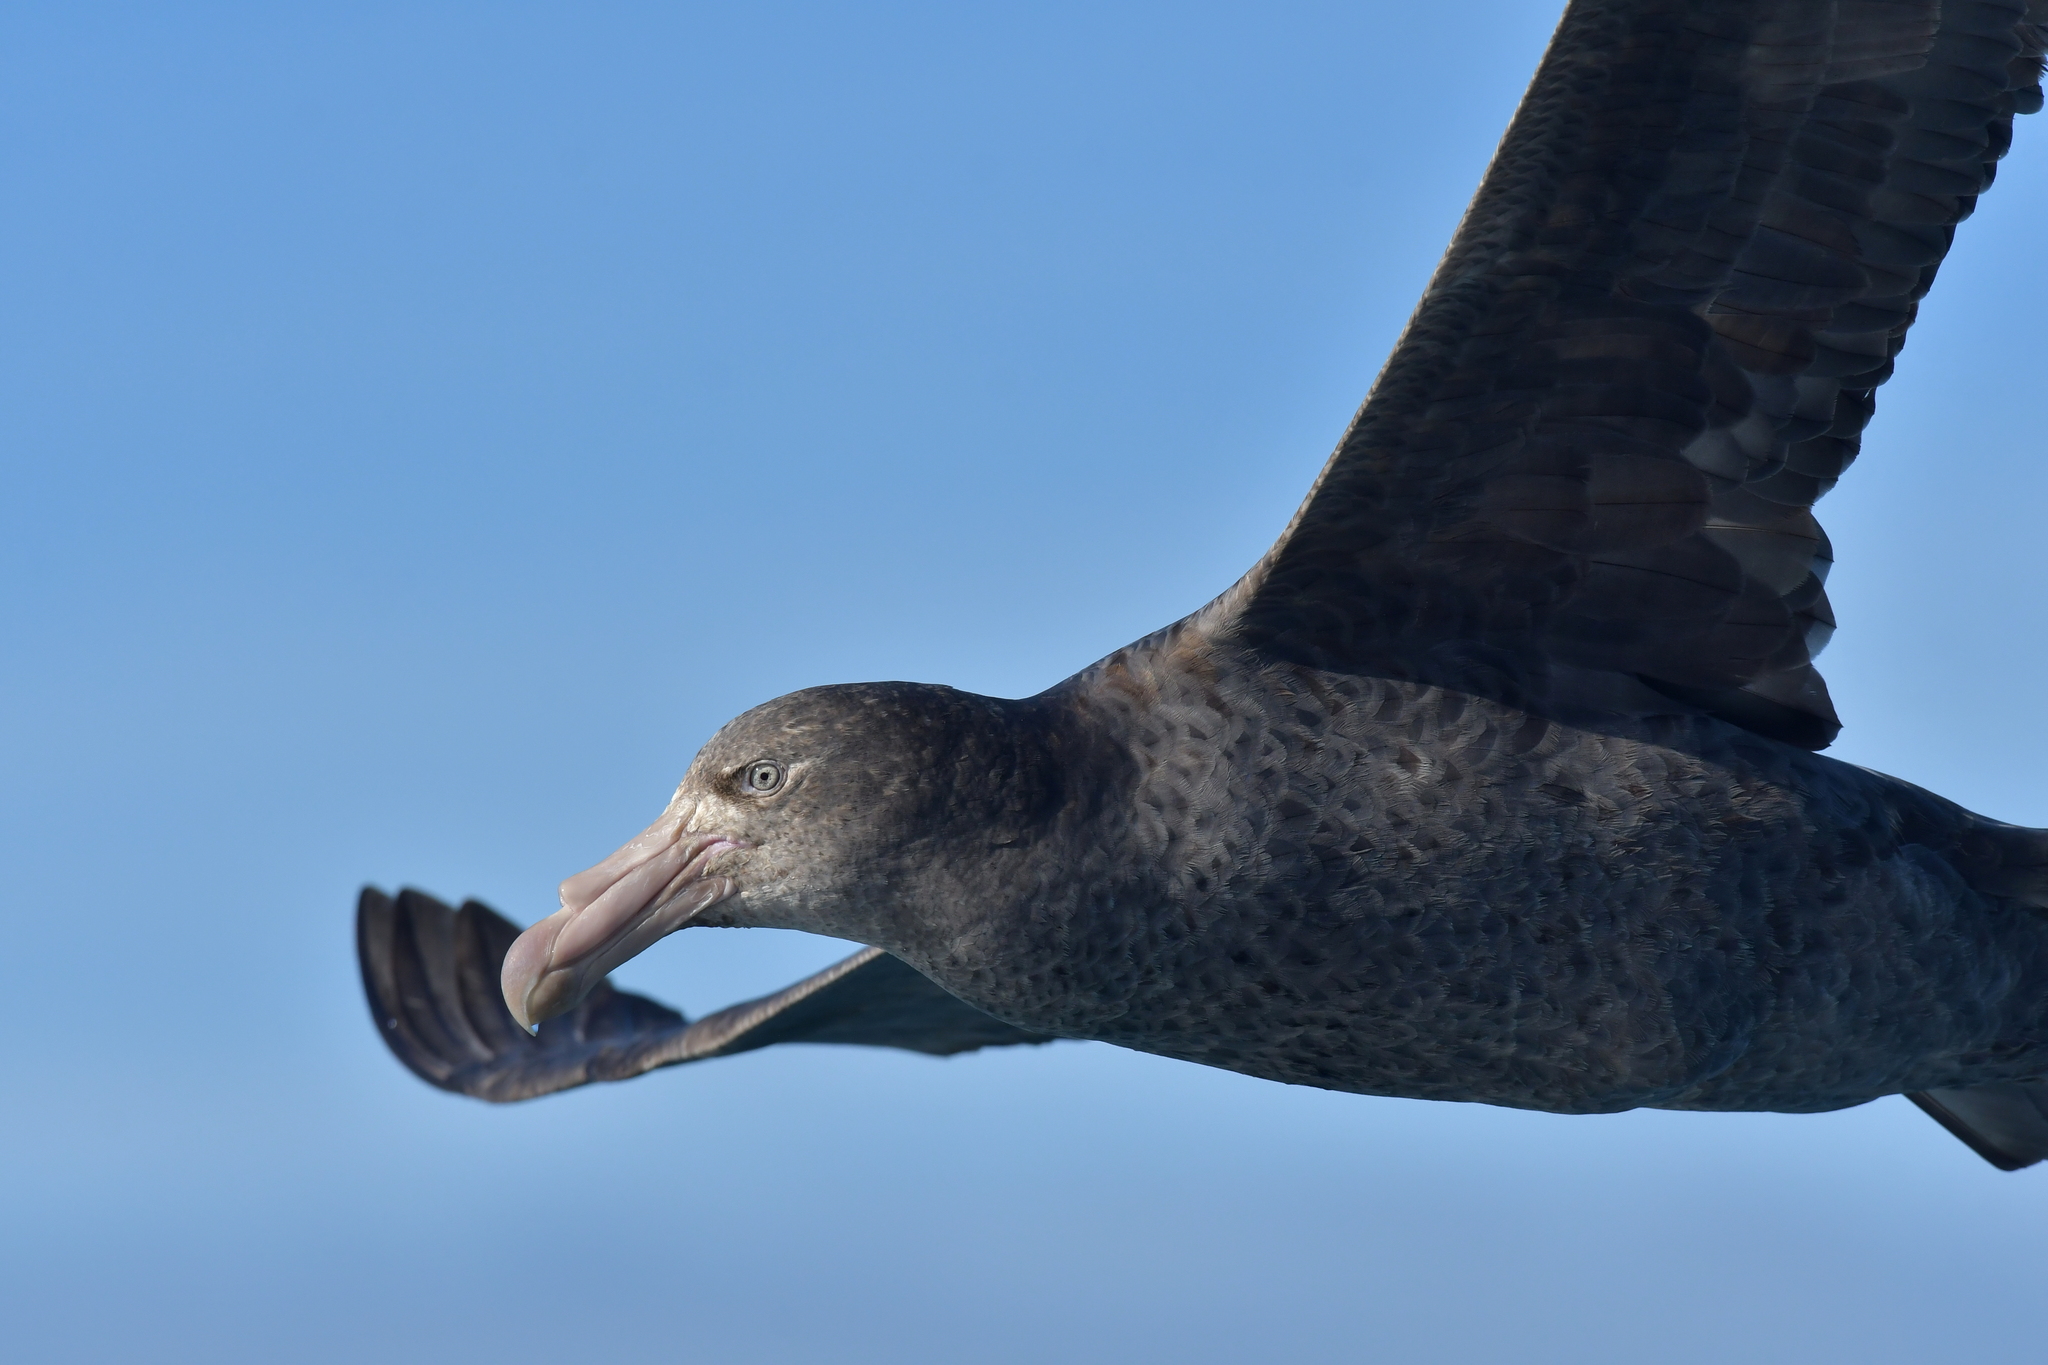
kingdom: Animalia
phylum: Chordata
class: Aves
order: Procellariiformes
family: Procellariidae
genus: Macronectes
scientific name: Macronectes halli
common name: Northern giant petrel
